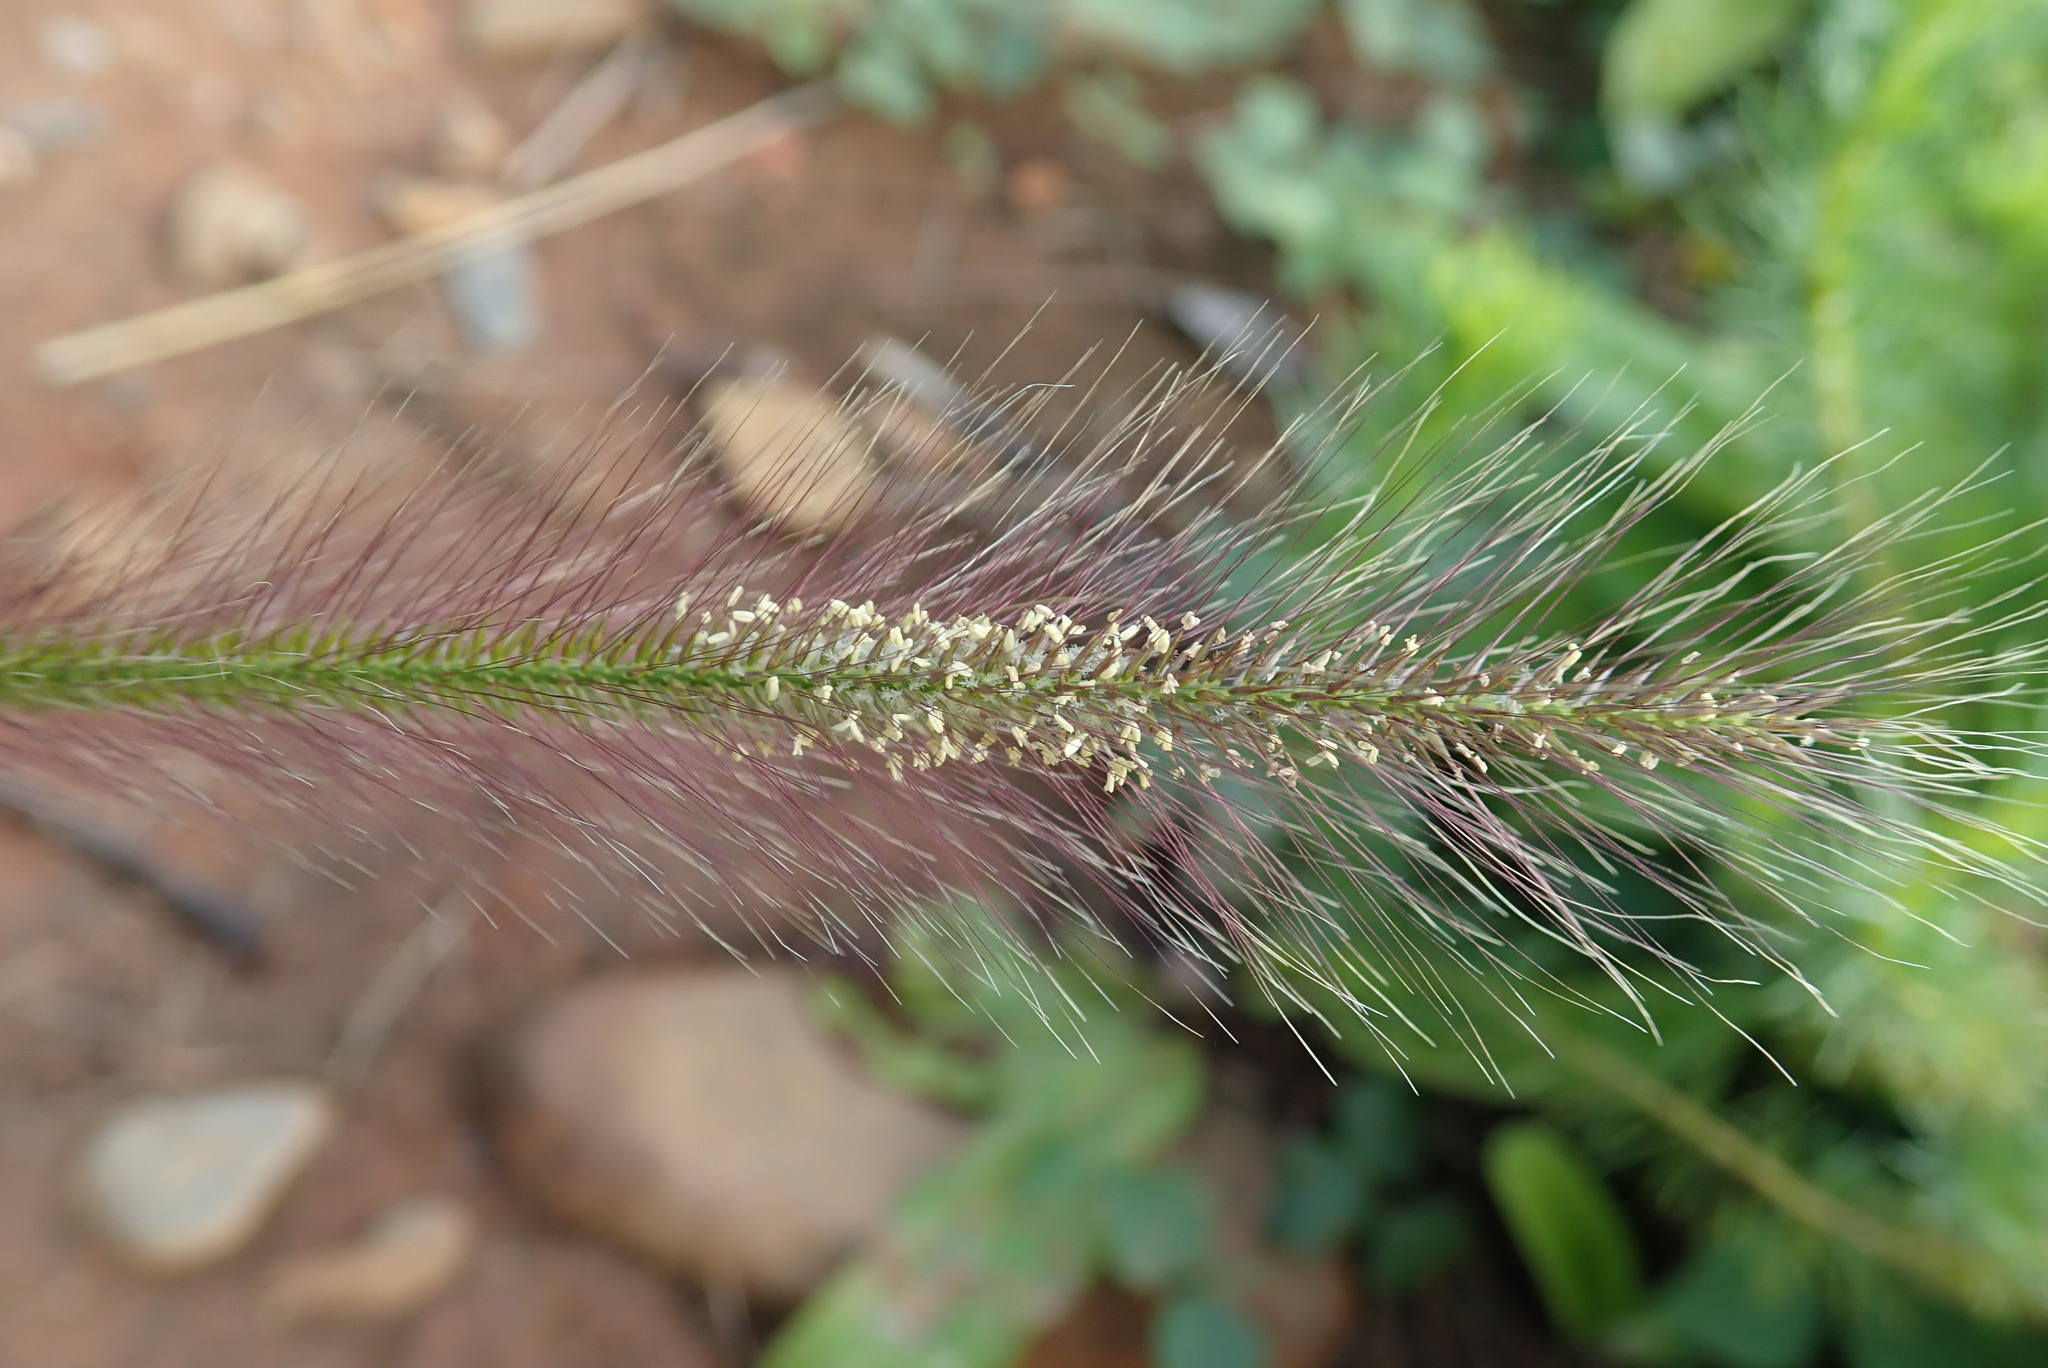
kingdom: Plantae
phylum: Tracheophyta
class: Liliopsida
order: Poales
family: Poaceae
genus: Perotis
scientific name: Perotis patens
